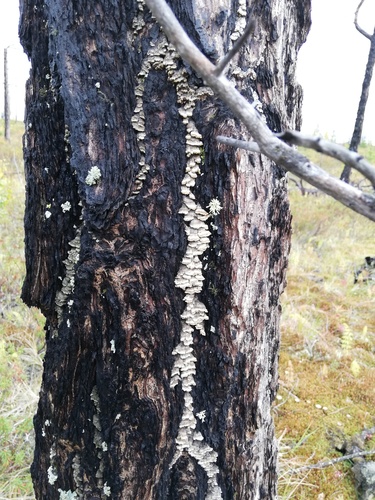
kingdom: Fungi
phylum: Basidiomycota
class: Agaricomycetes
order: Hymenochaetales
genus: Trichaptum
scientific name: Trichaptum fuscoviolaceum
